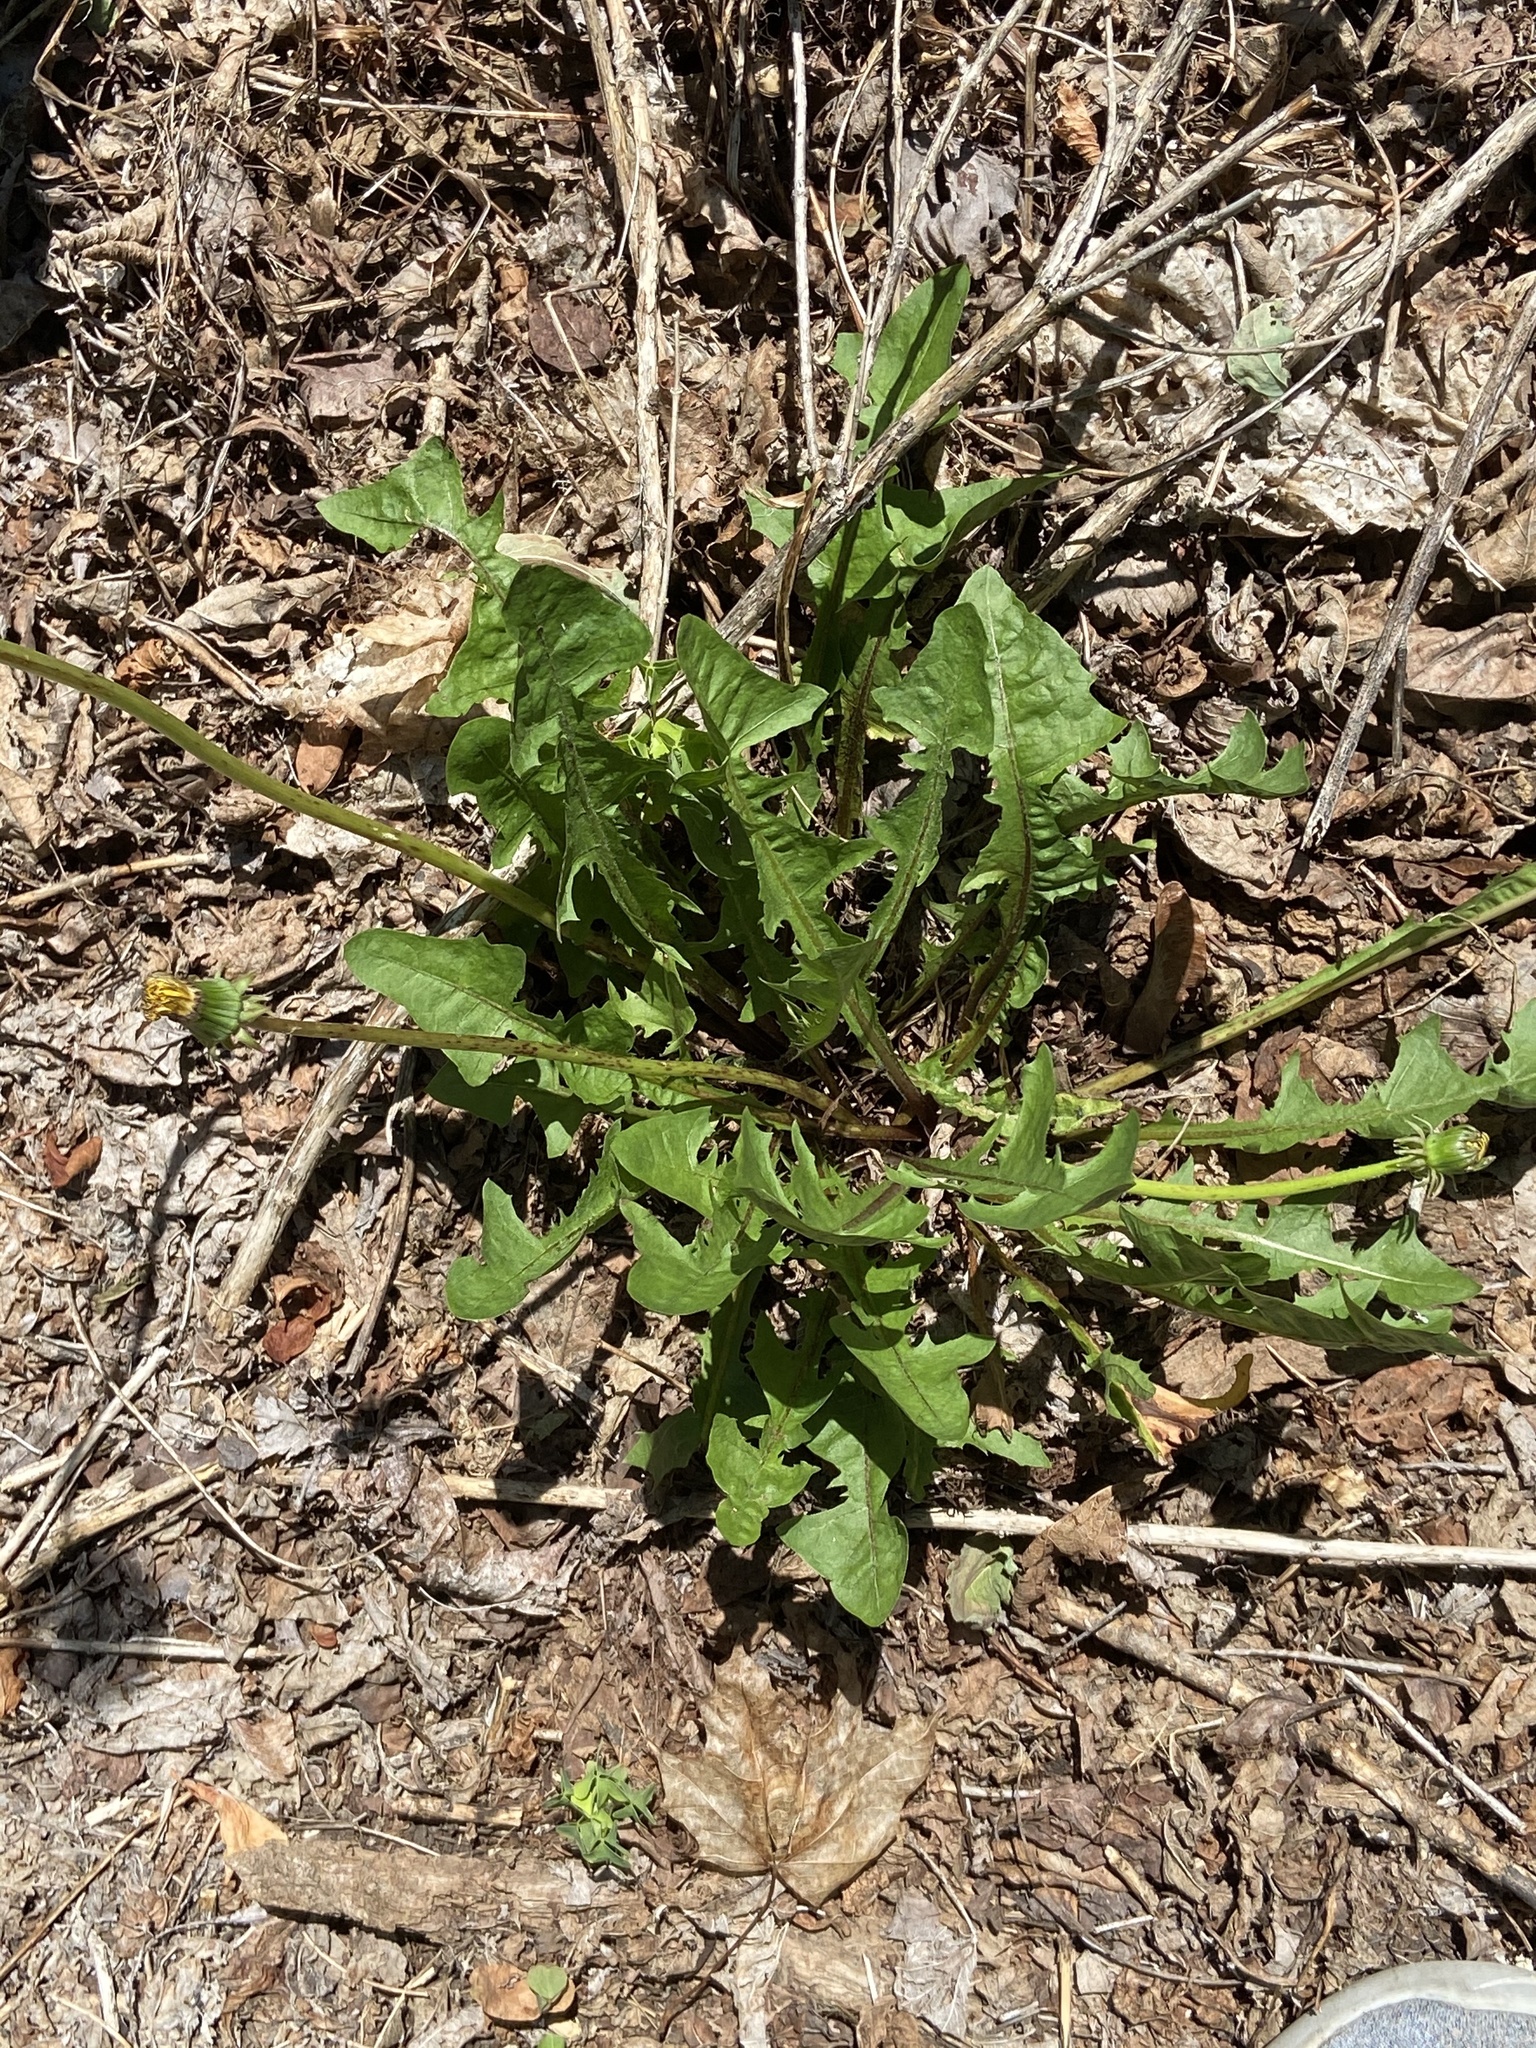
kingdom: Plantae
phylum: Tracheophyta
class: Magnoliopsida
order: Asterales
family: Asteraceae
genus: Taraxacum
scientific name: Taraxacum officinale
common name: Common dandelion
